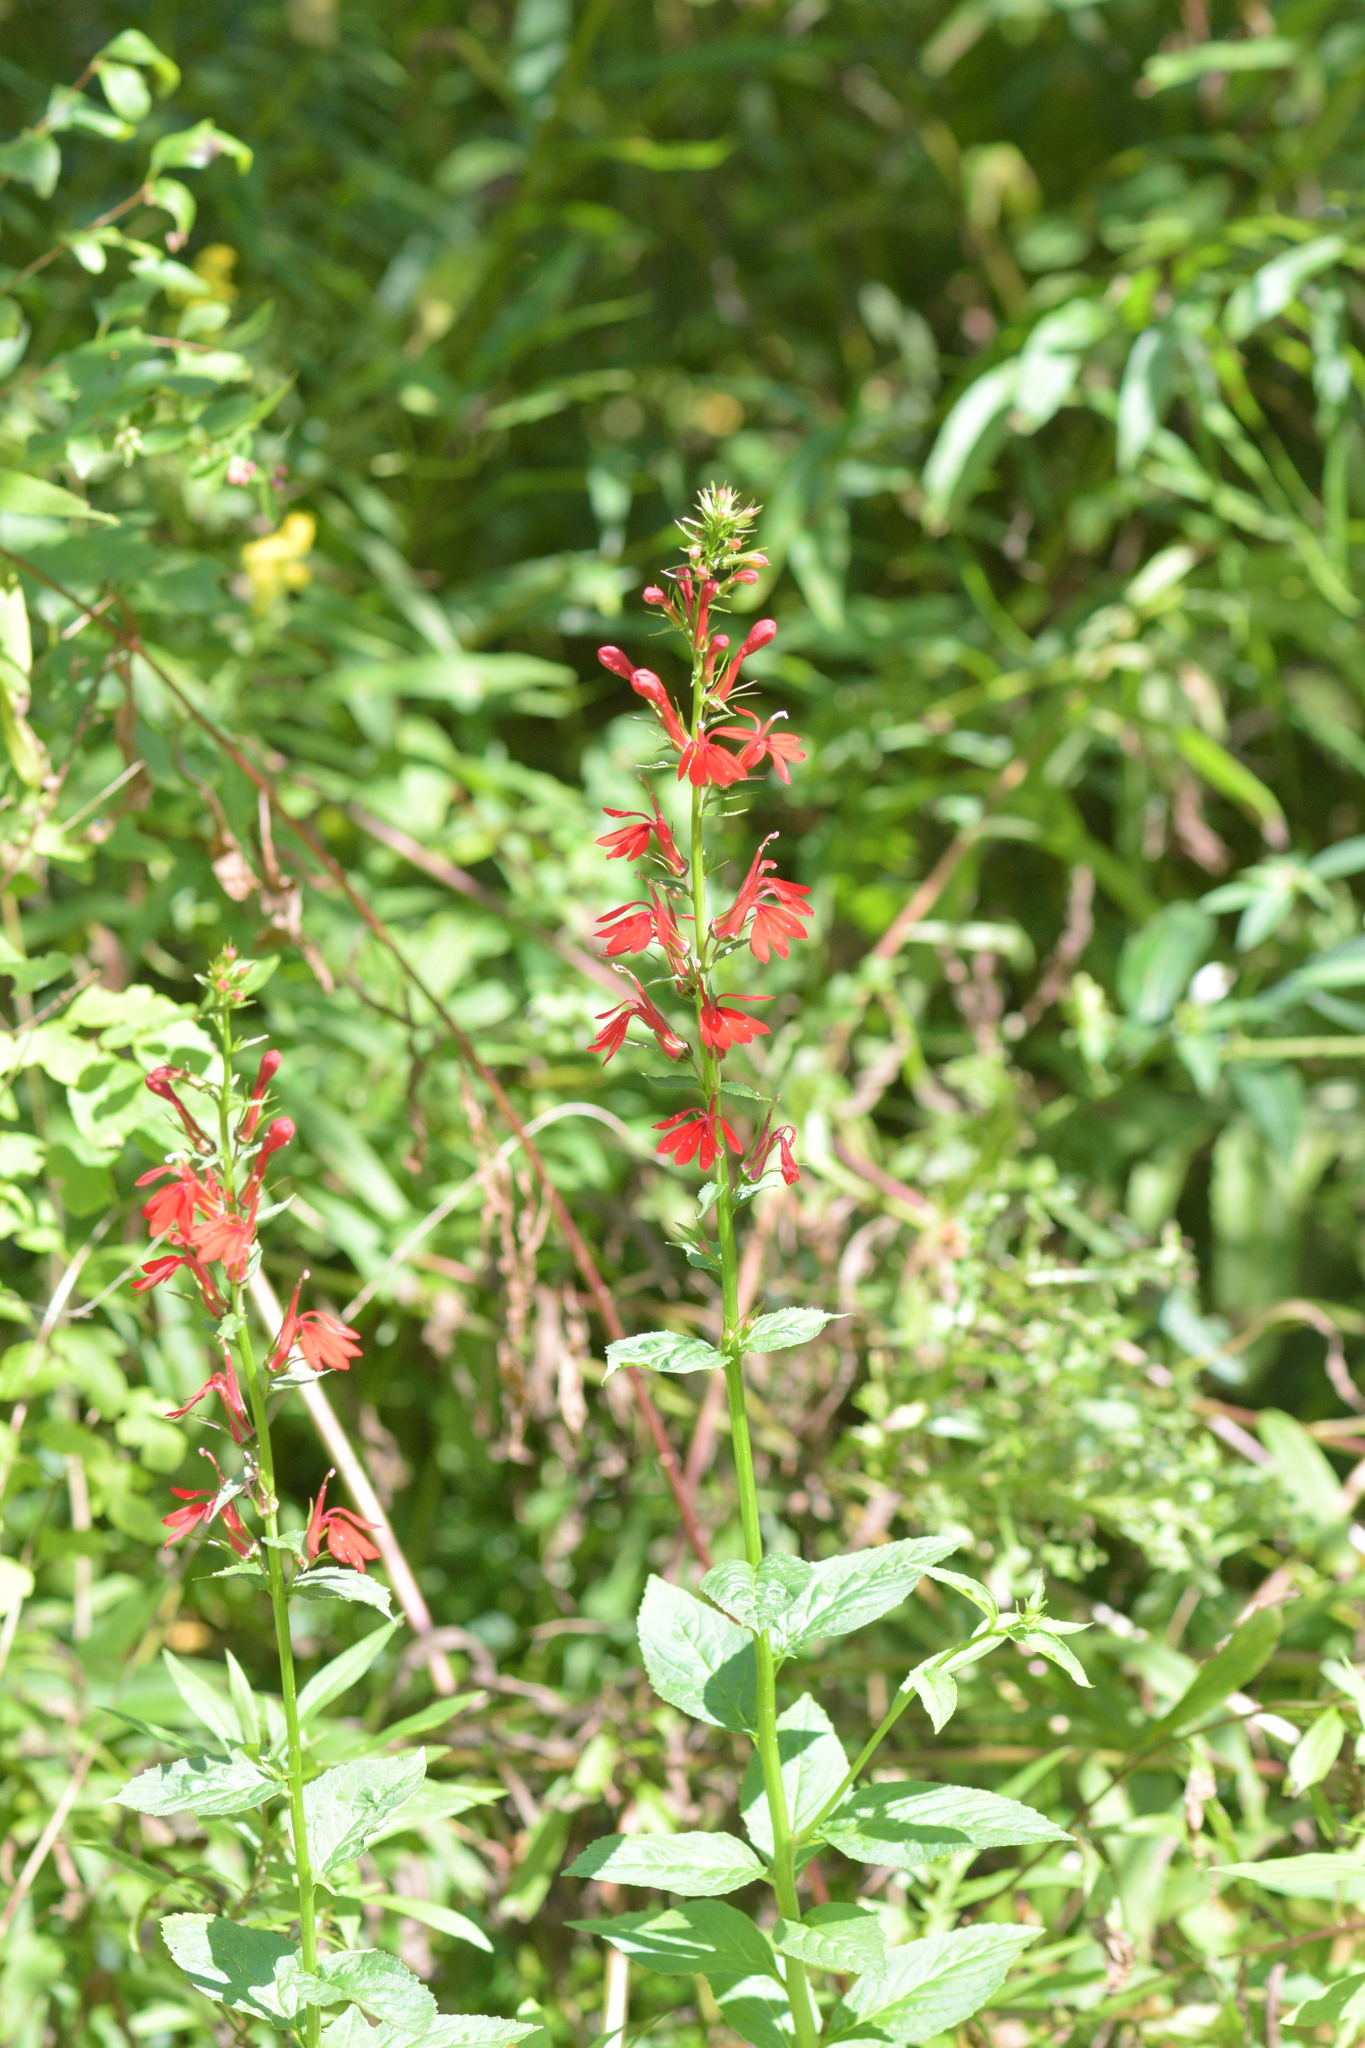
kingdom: Plantae
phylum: Tracheophyta
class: Magnoliopsida
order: Asterales
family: Campanulaceae
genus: Lobelia
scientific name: Lobelia cardinalis
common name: Cardinal flower
